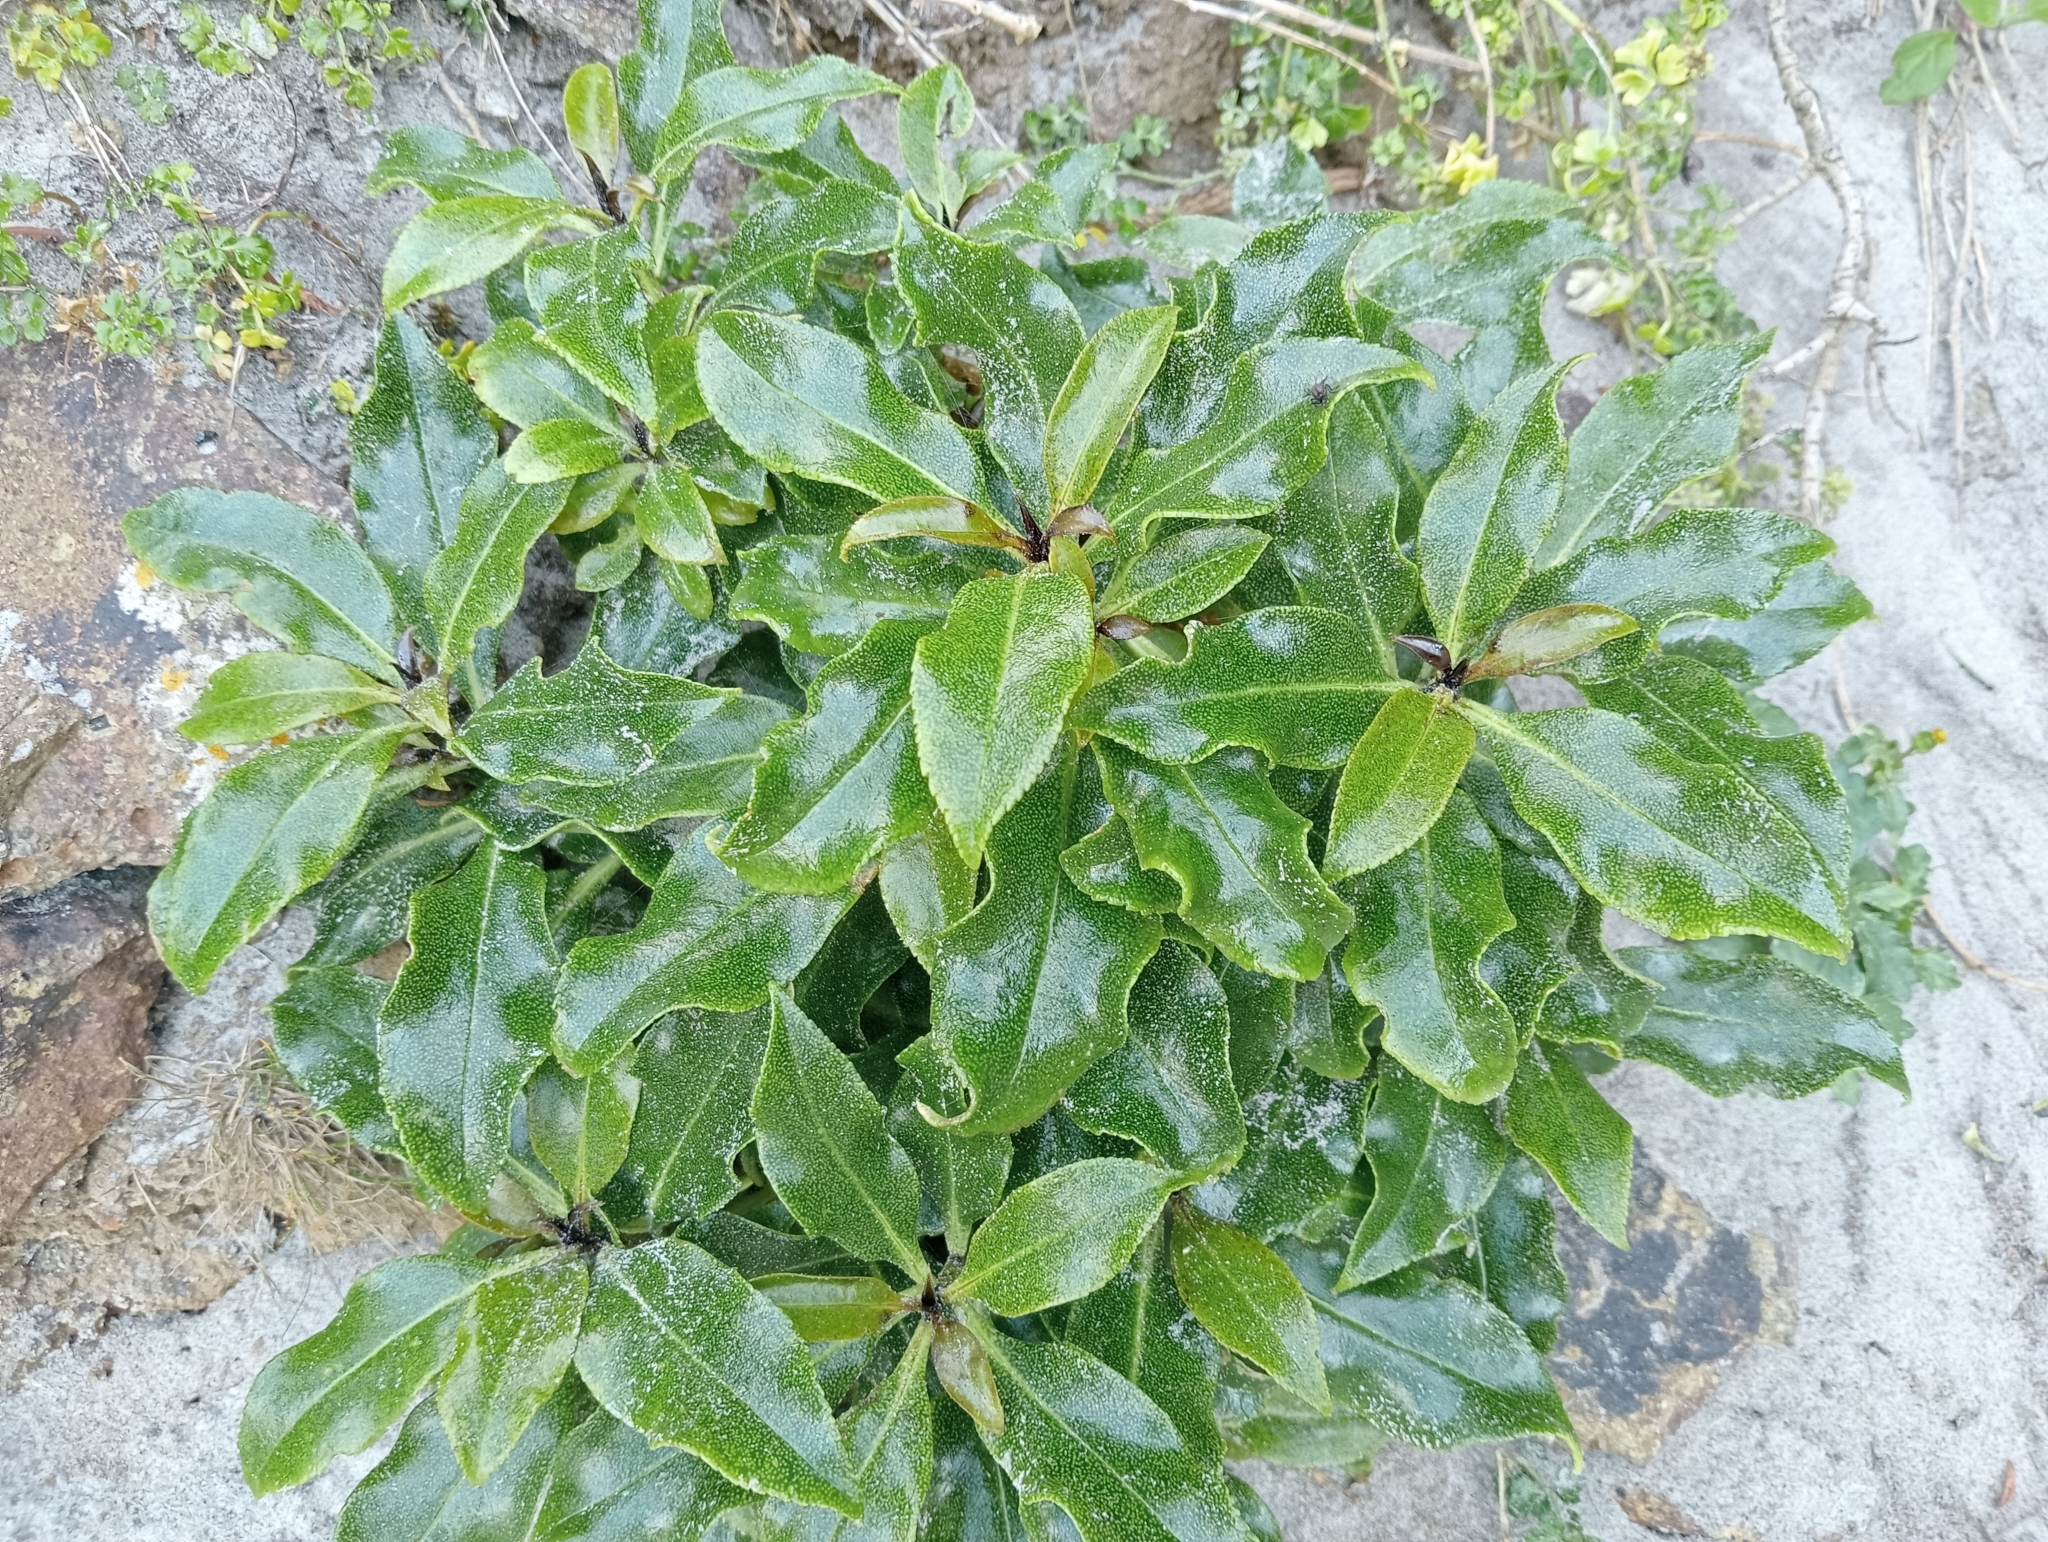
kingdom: Plantae
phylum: Tracheophyta
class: Magnoliopsida
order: Lamiales
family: Scrophulariaceae
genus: Myoporum
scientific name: Myoporum laetum
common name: Ngaio tree
